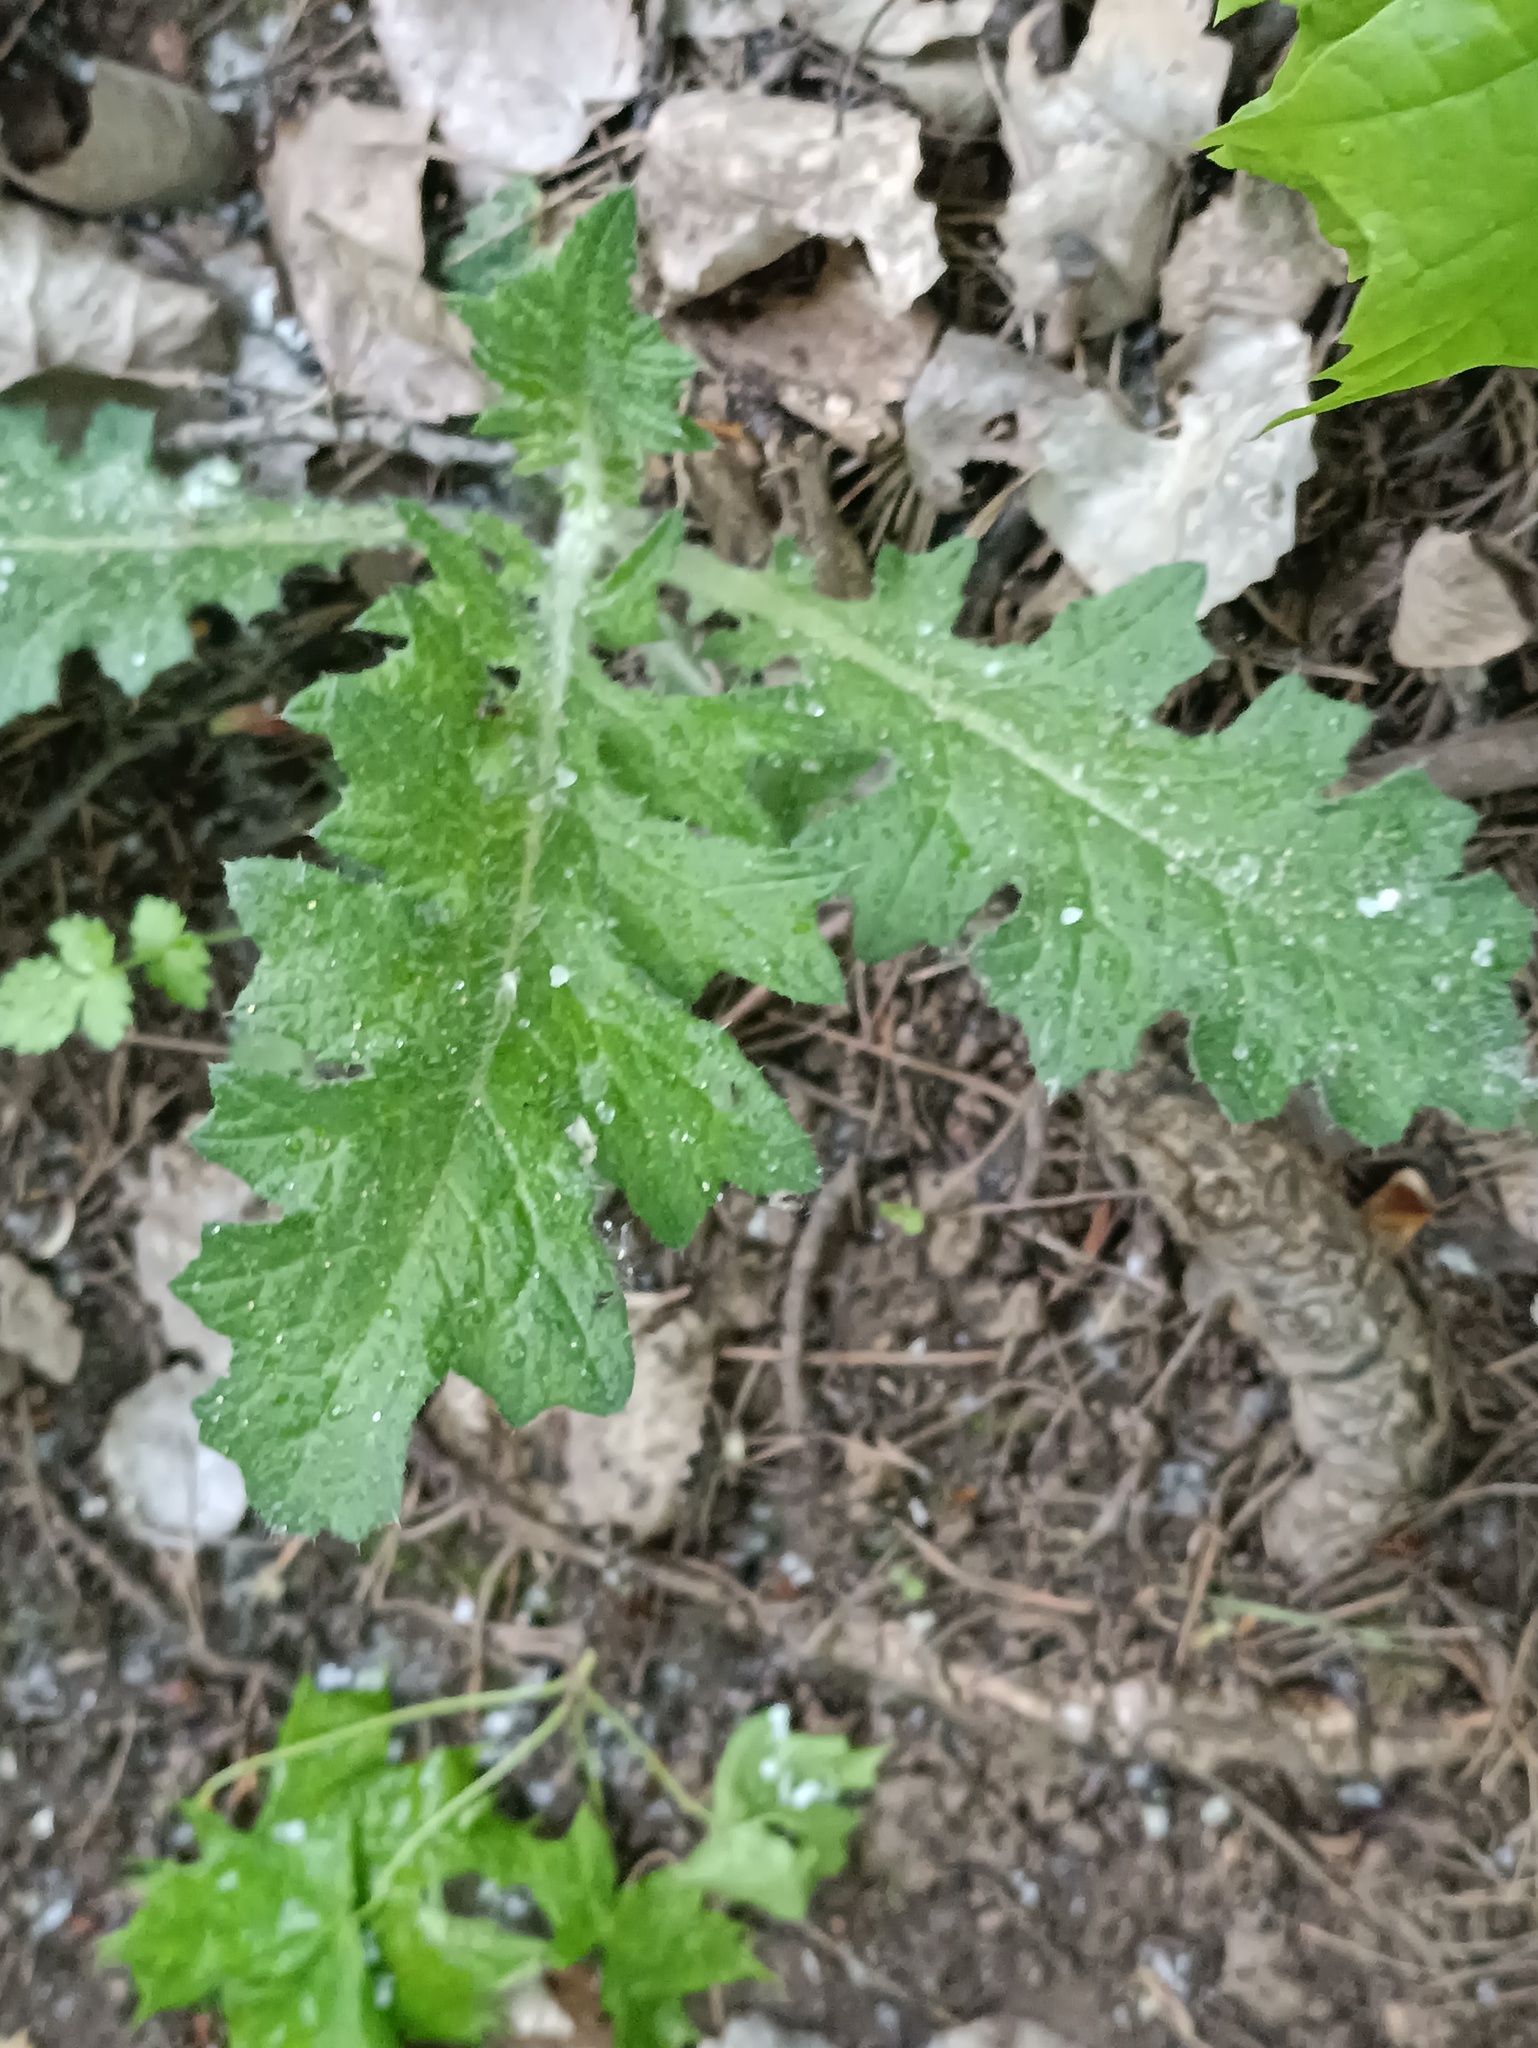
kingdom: Plantae
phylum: Tracheophyta
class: Magnoliopsida
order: Asterales
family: Asteraceae
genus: Carduus
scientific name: Carduus crispus
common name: Welted thistle
